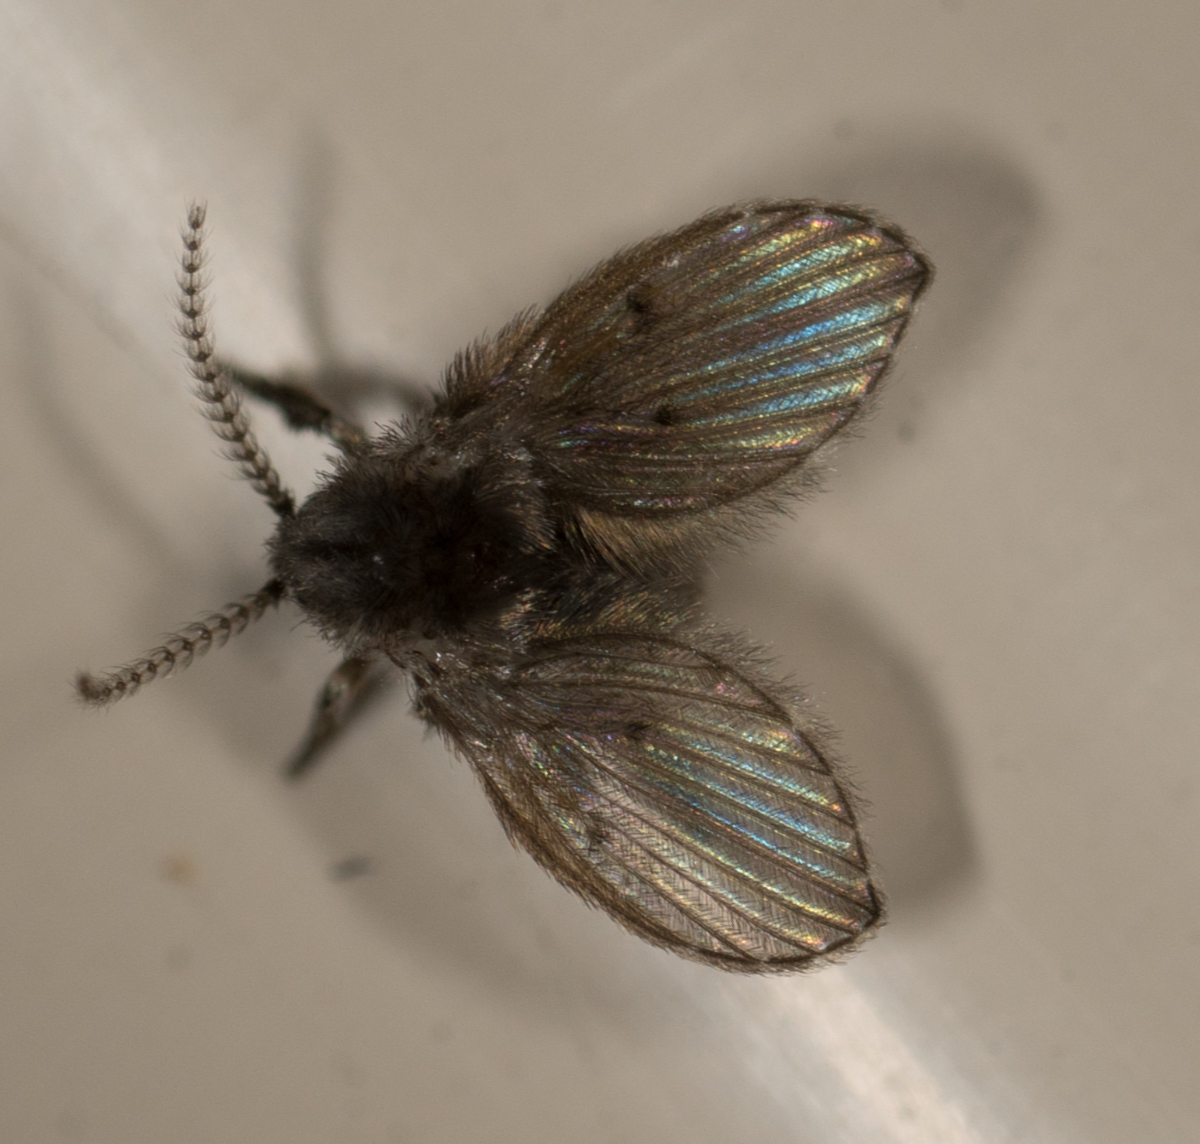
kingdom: Animalia
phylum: Arthropoda
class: Insecta
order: Diptera
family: Psychodidae
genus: Clogmia
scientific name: Clogmia albipunctatus
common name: White-spotted moth fly
